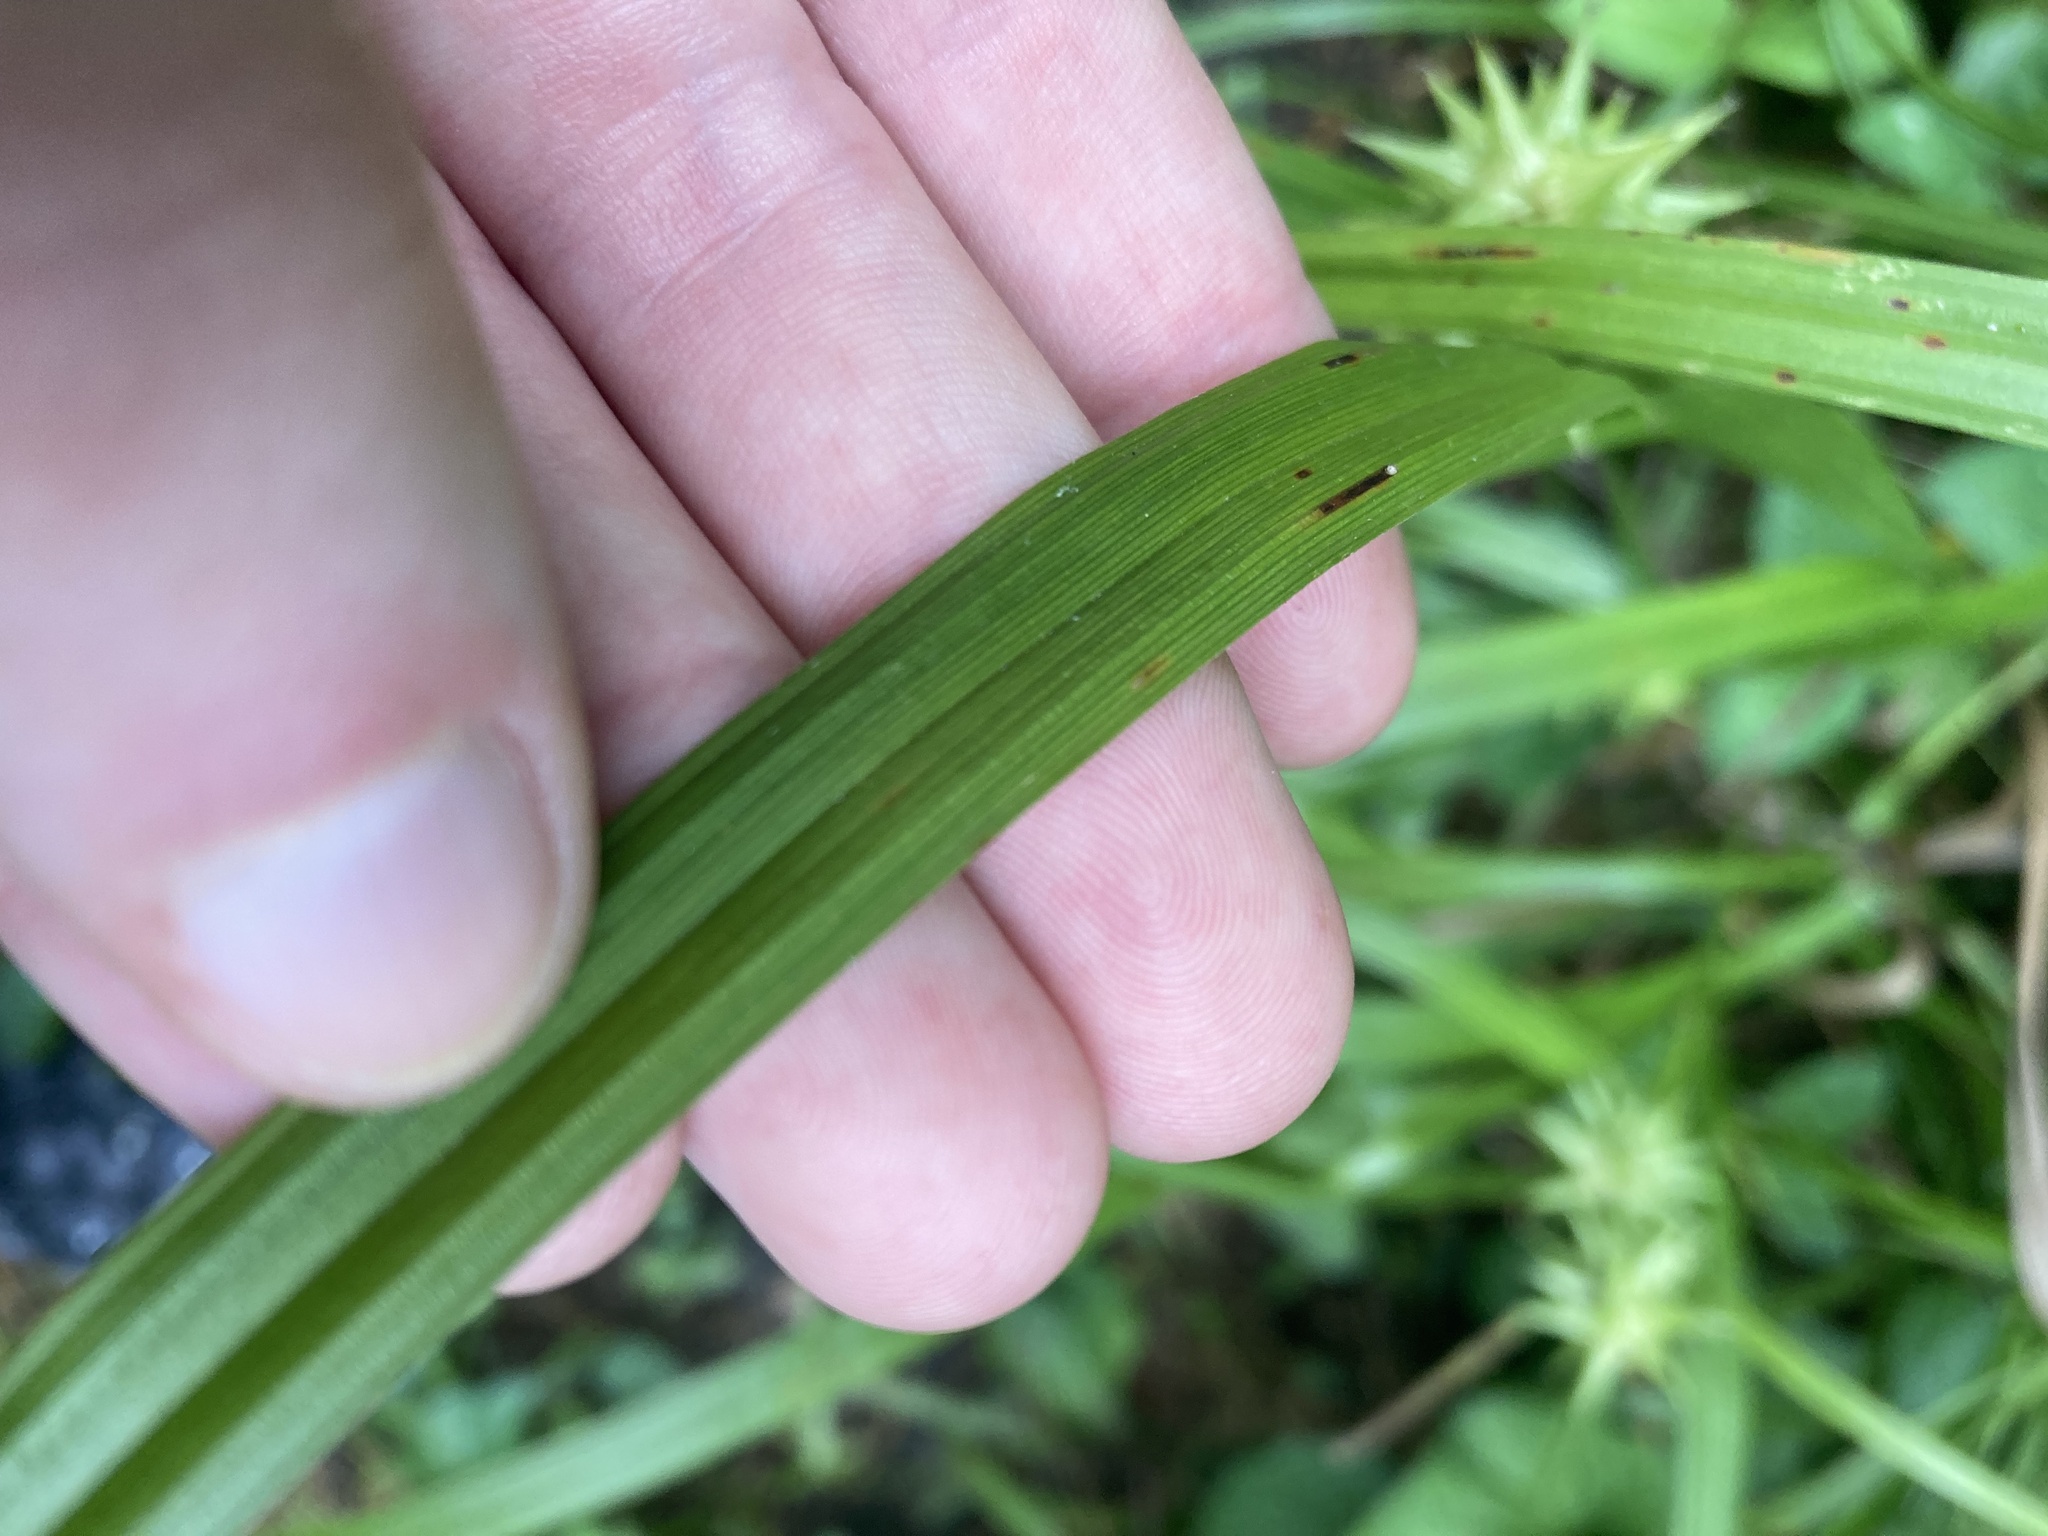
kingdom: Plantae
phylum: Tracheophyta
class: Liliopsida
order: Poales
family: Cyperaceae
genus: Carex
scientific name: Carex grayi
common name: Asa gray's sedge
